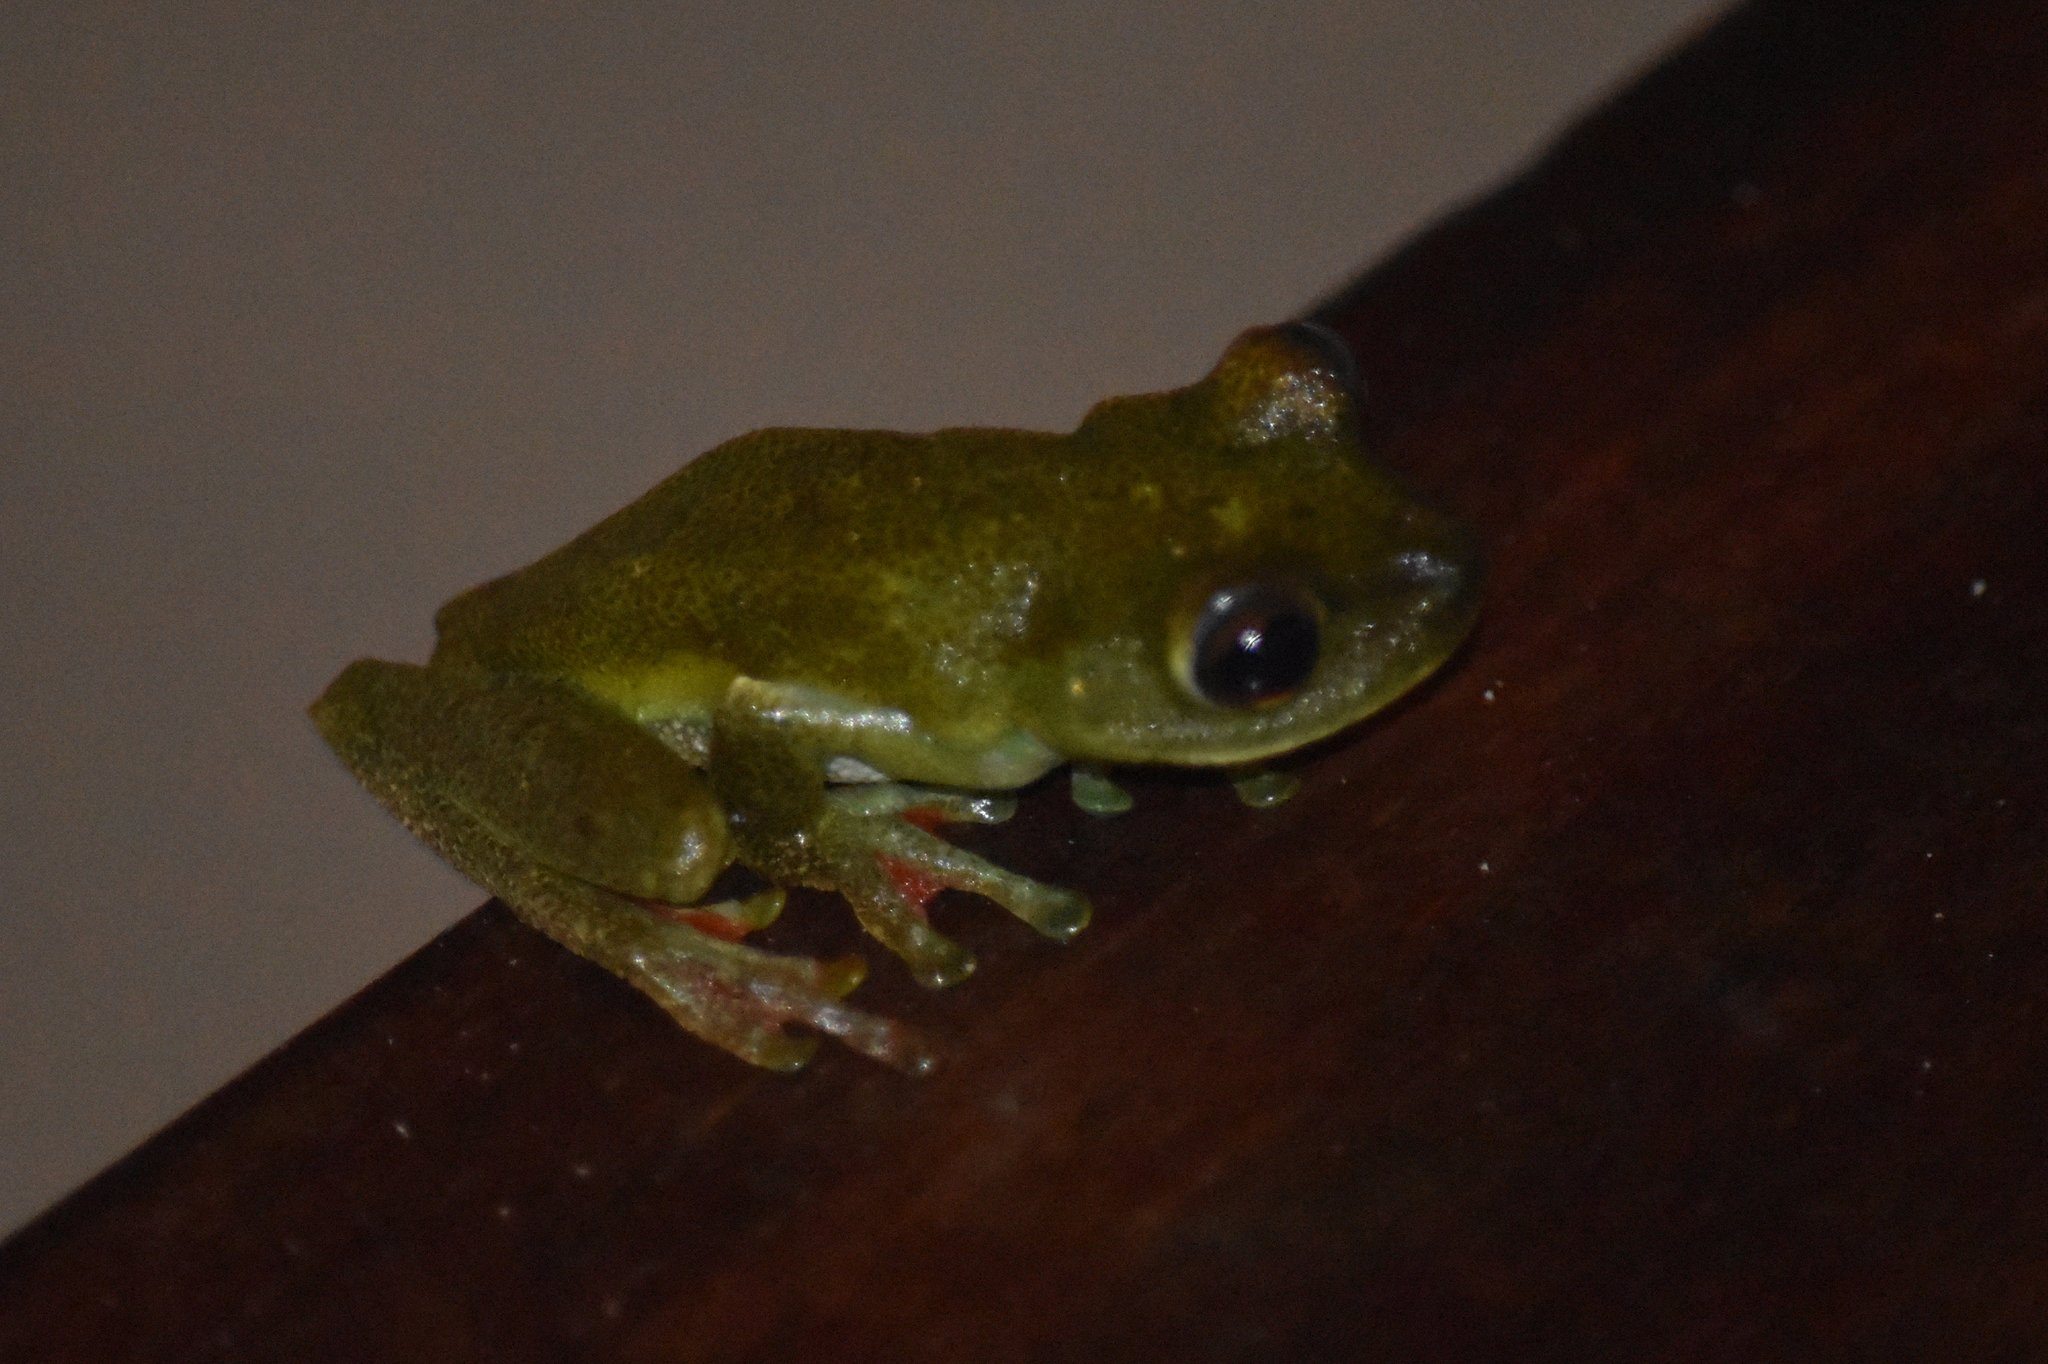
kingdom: Animalia
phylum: Chordata
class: Amphibia
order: Anura
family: Hylidae
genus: Boana
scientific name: Boana rufitela
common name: Canal zone treefrog
